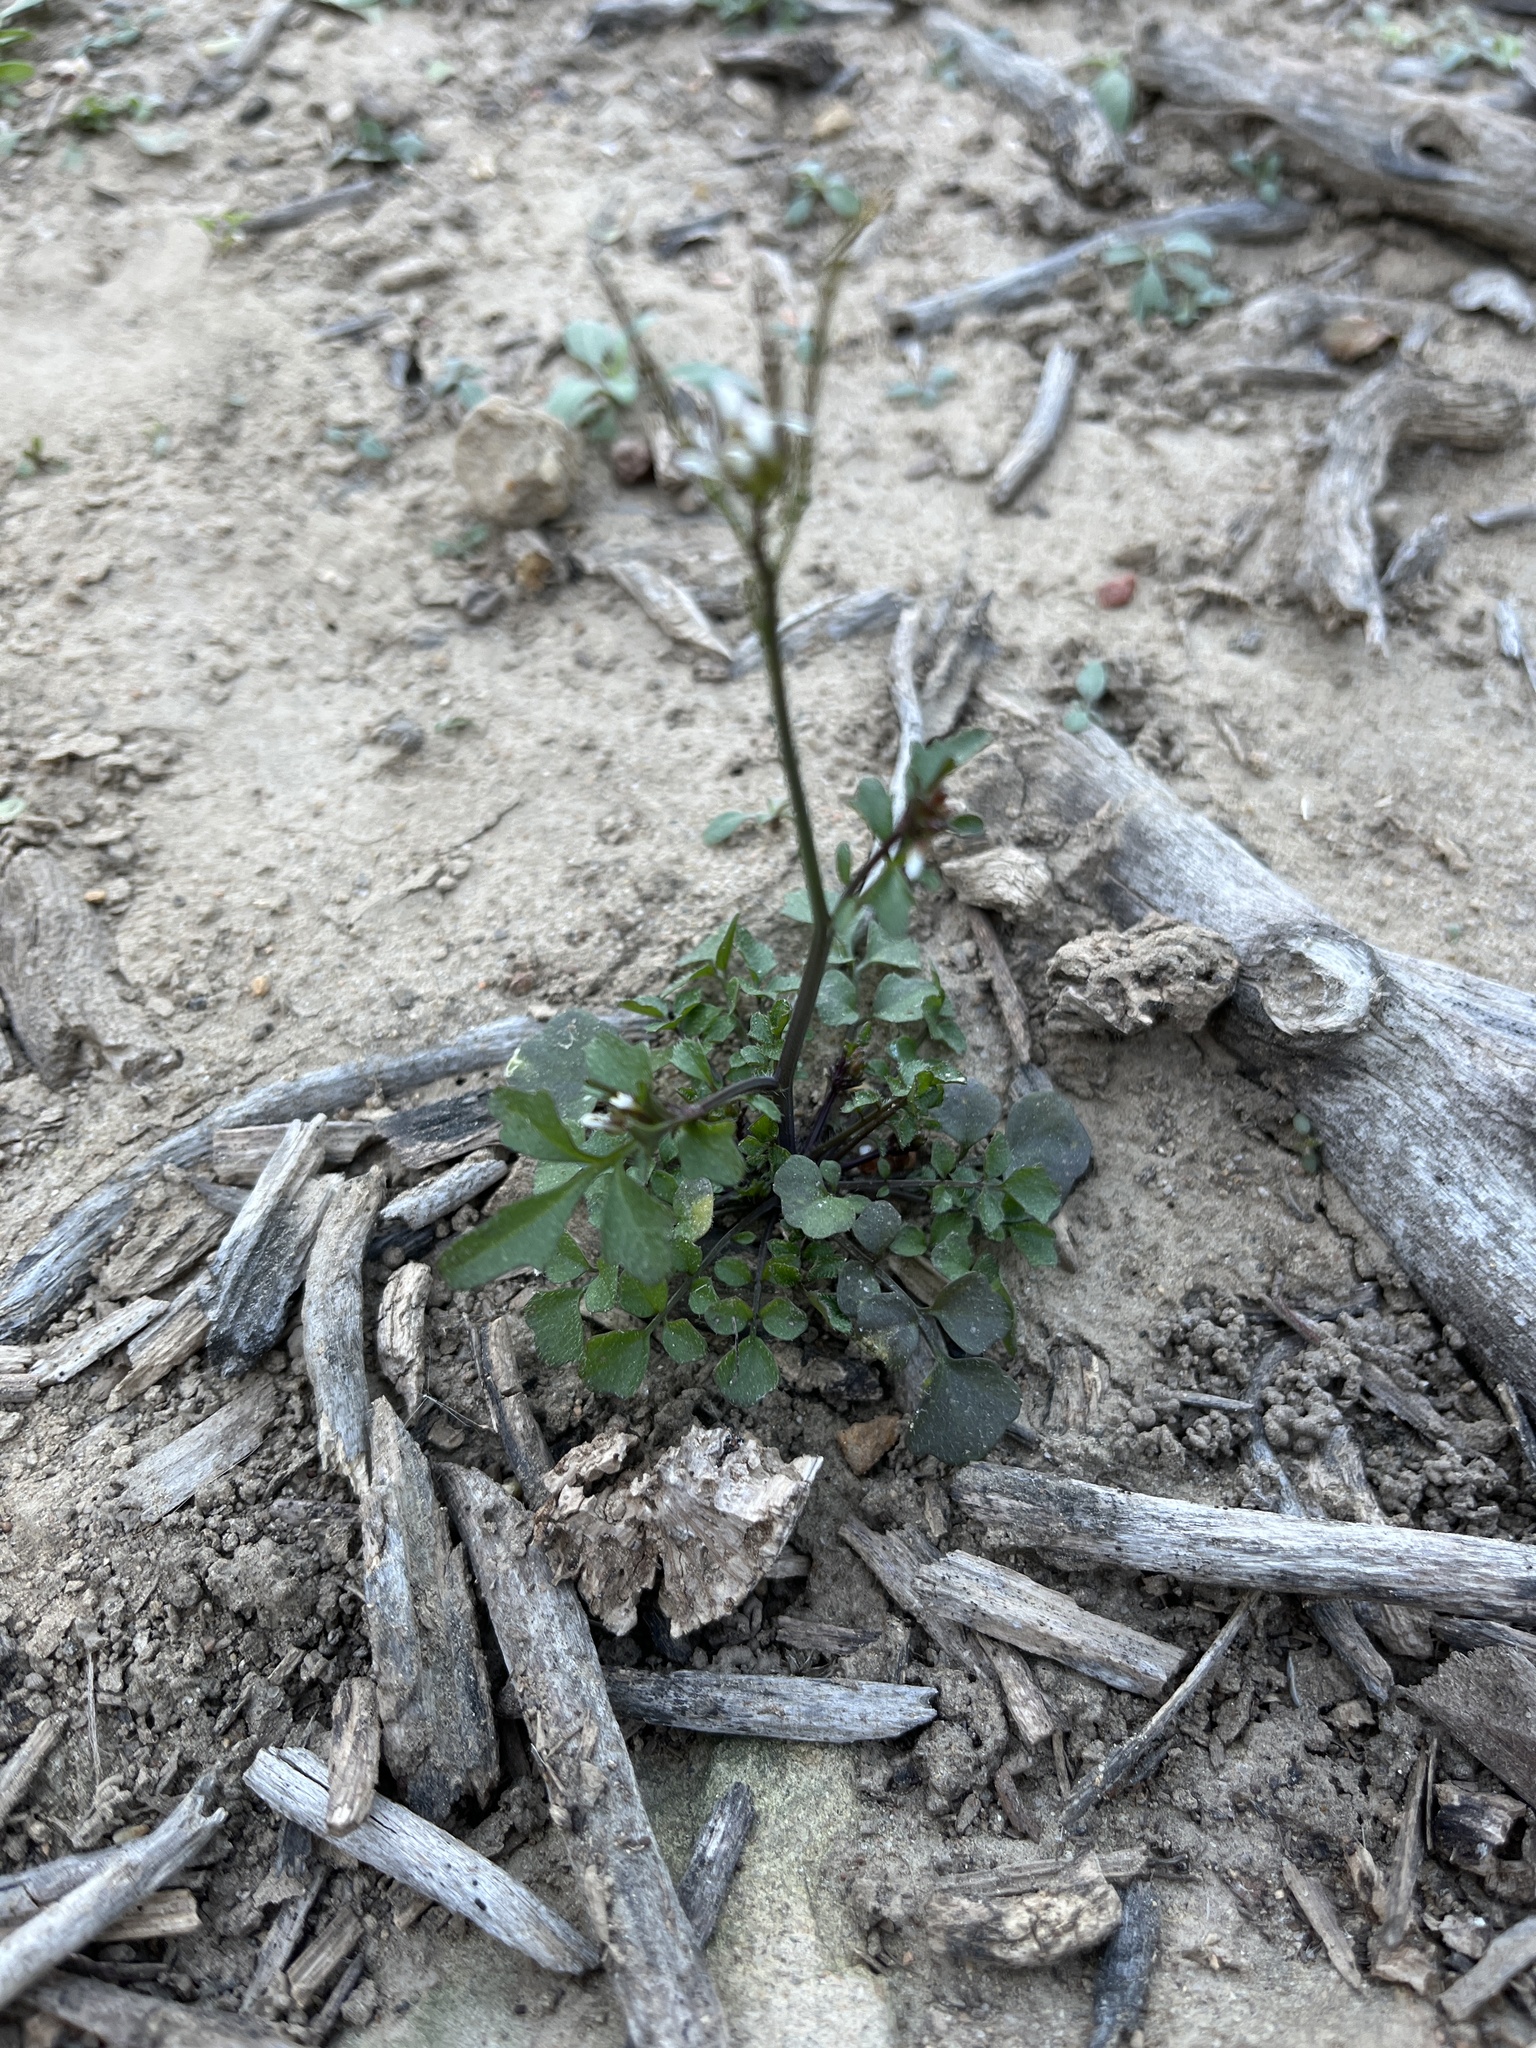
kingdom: Plantae
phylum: Tracheophyta
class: Magnoliopsida
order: Brassicales
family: Brassicaceae
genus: Cardamine
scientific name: Cardamine hirsuta
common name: Hairy bittercress
